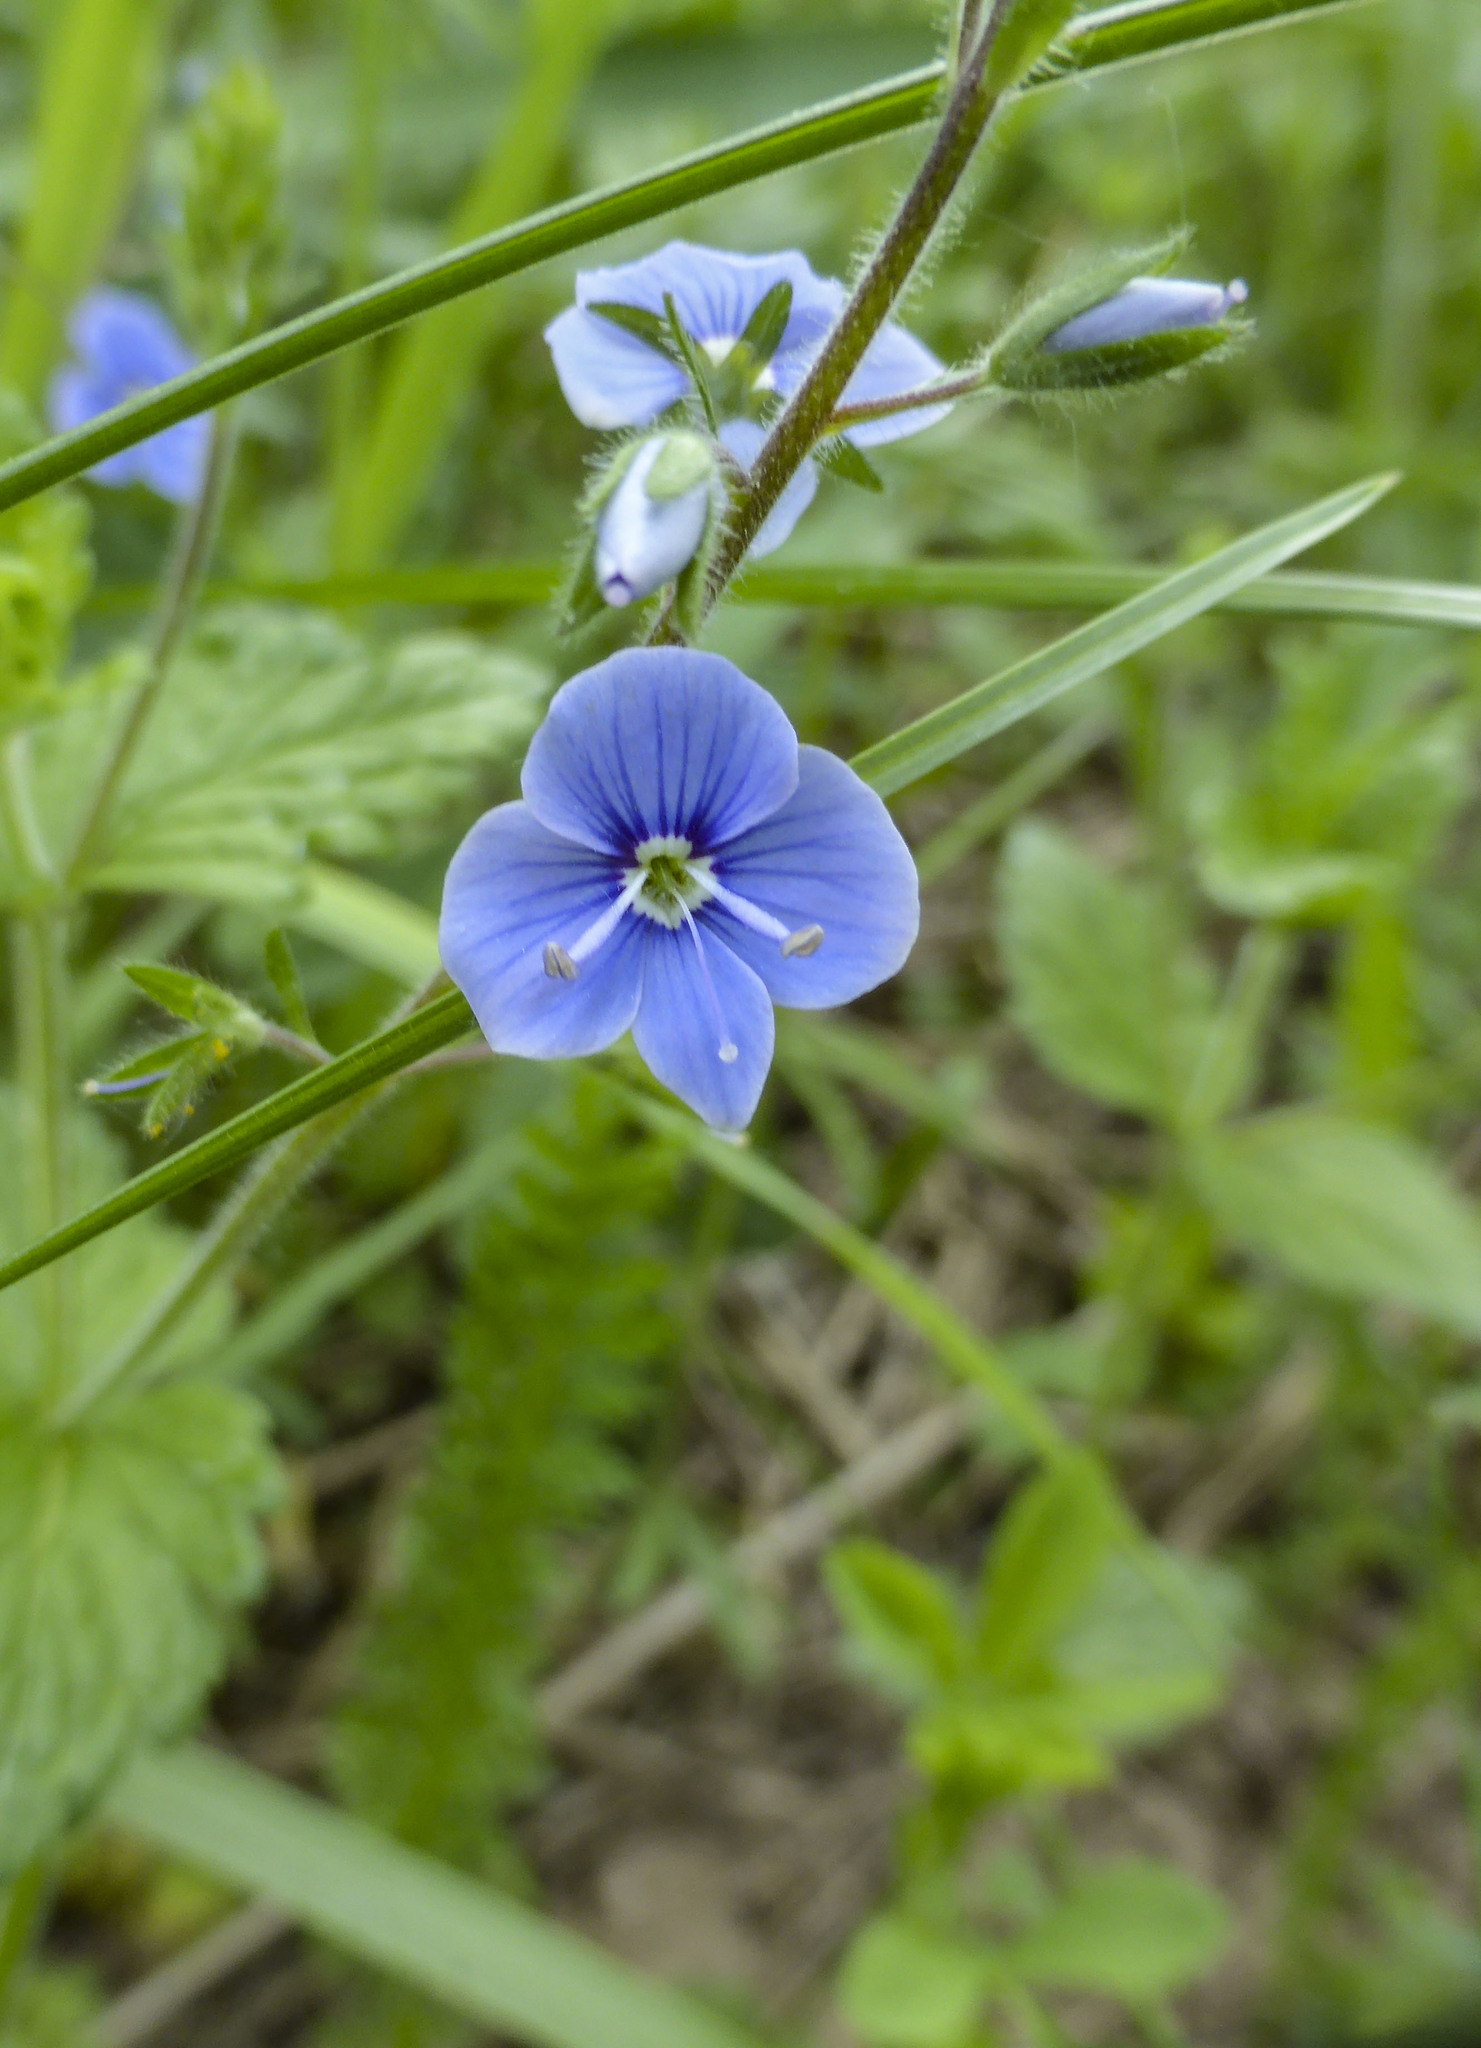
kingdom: Plantae
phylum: Tracheophyta
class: Magnoliopsida
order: Lamiales
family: Plantaginaceae
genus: Veronica
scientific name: Veronica chamaedrys
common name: Germander speedwell
